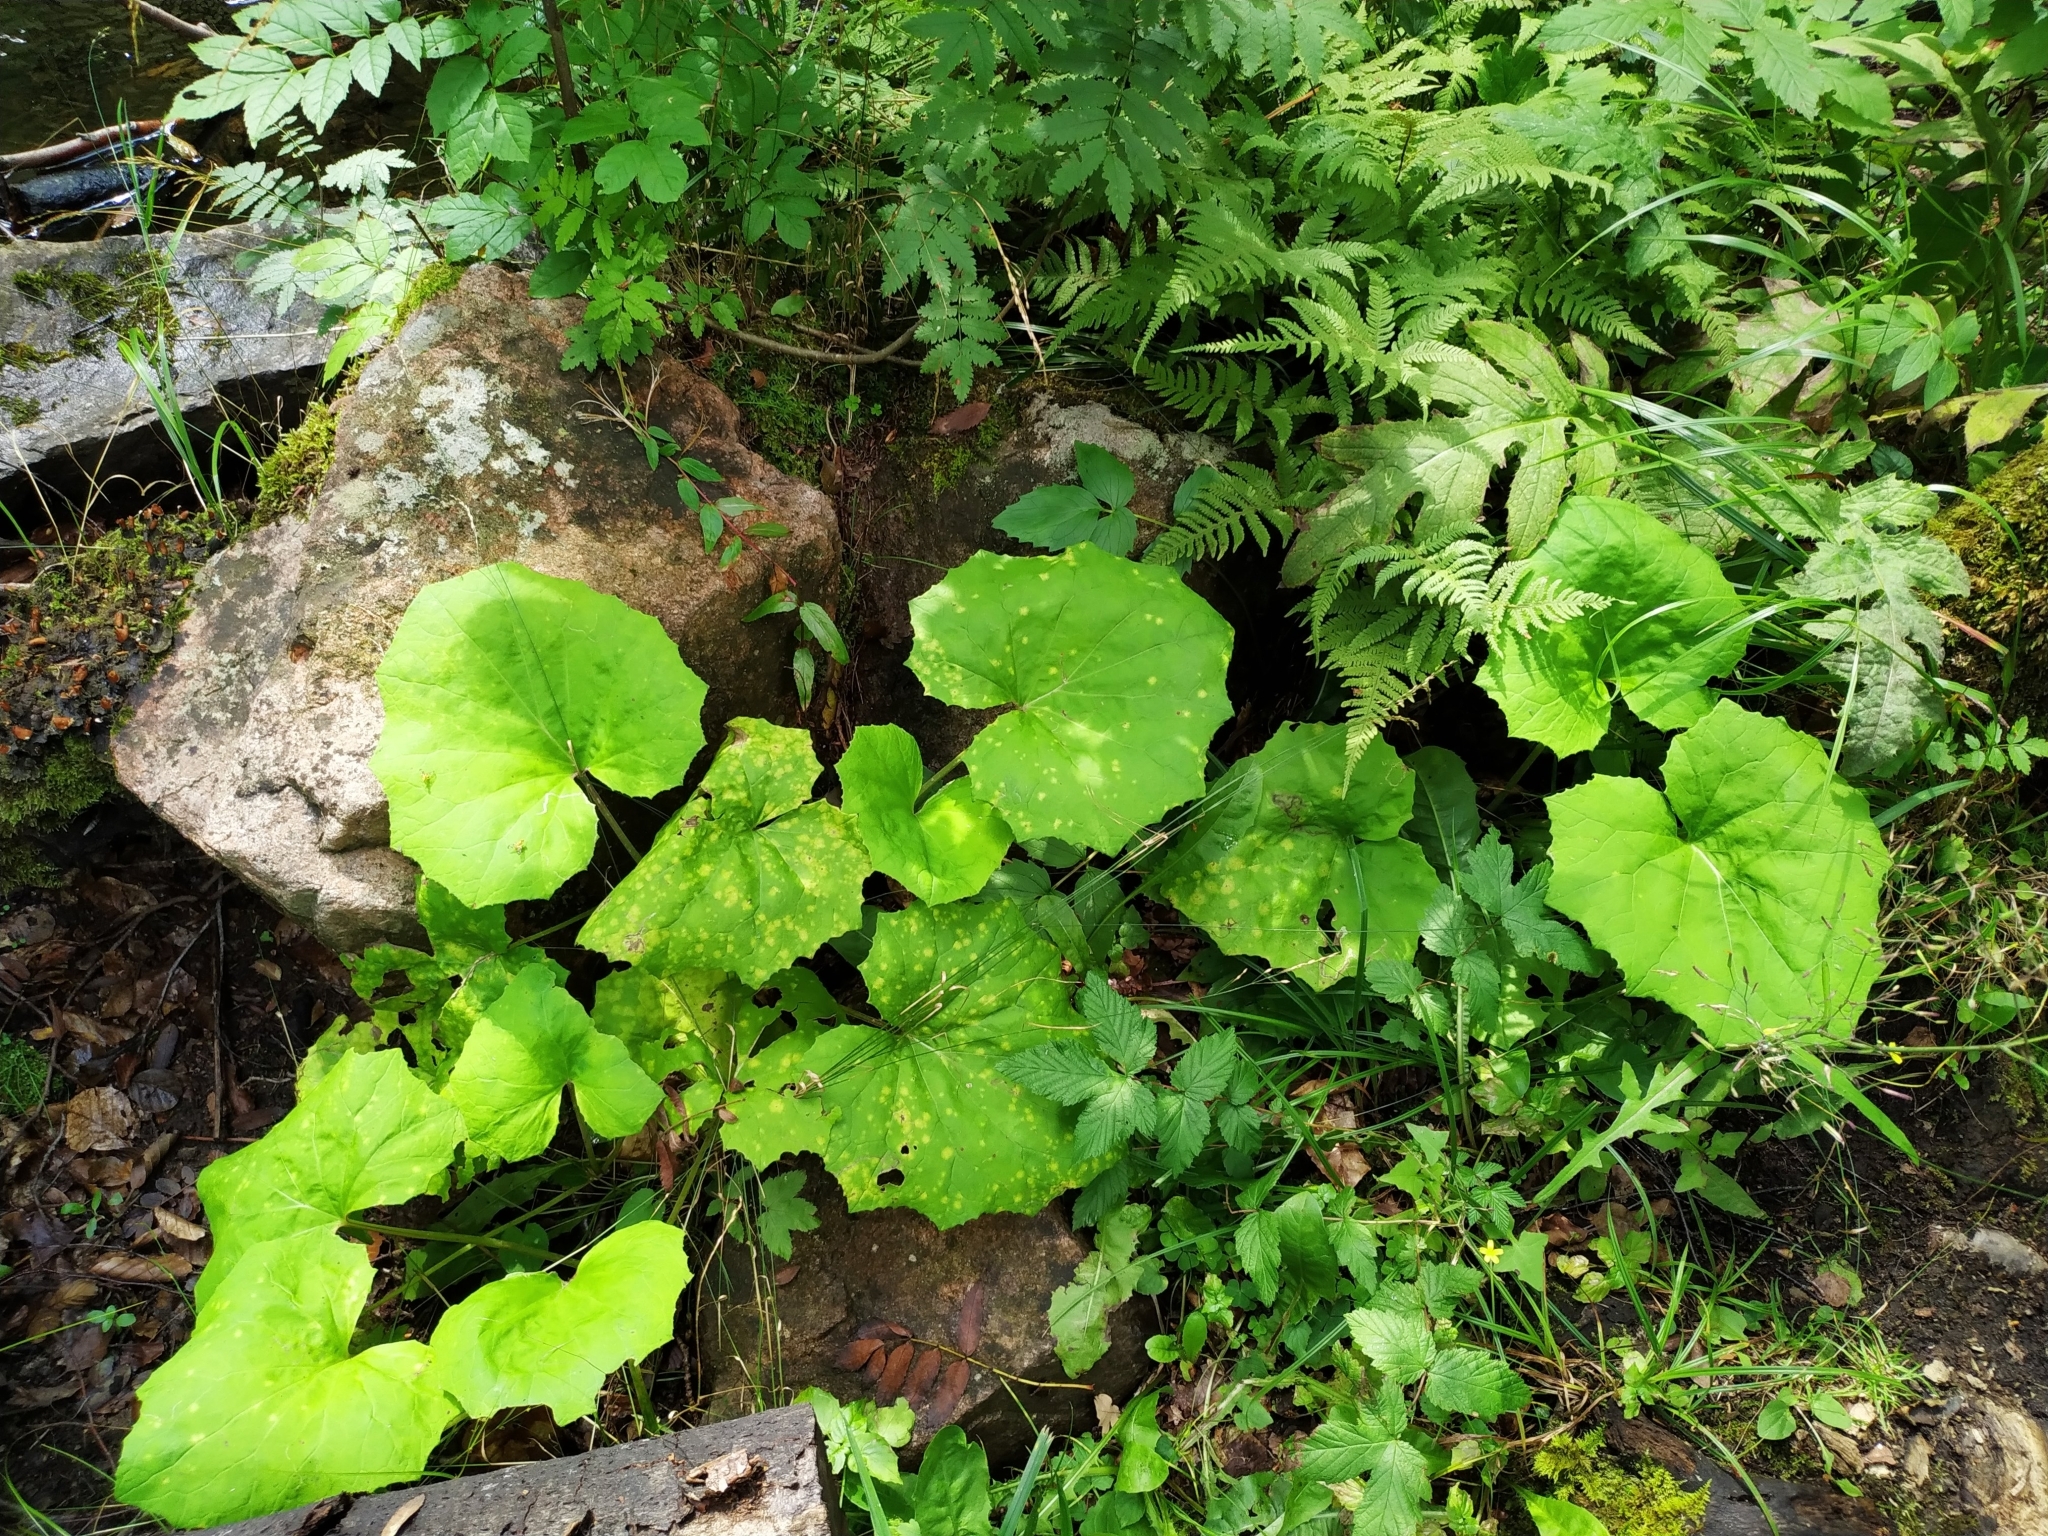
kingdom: Plantae
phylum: Tracheophyta
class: Magnoliopsida
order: Asterales
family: Asteraceae
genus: Petasites
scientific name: Petasites albus
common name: White butterbur
